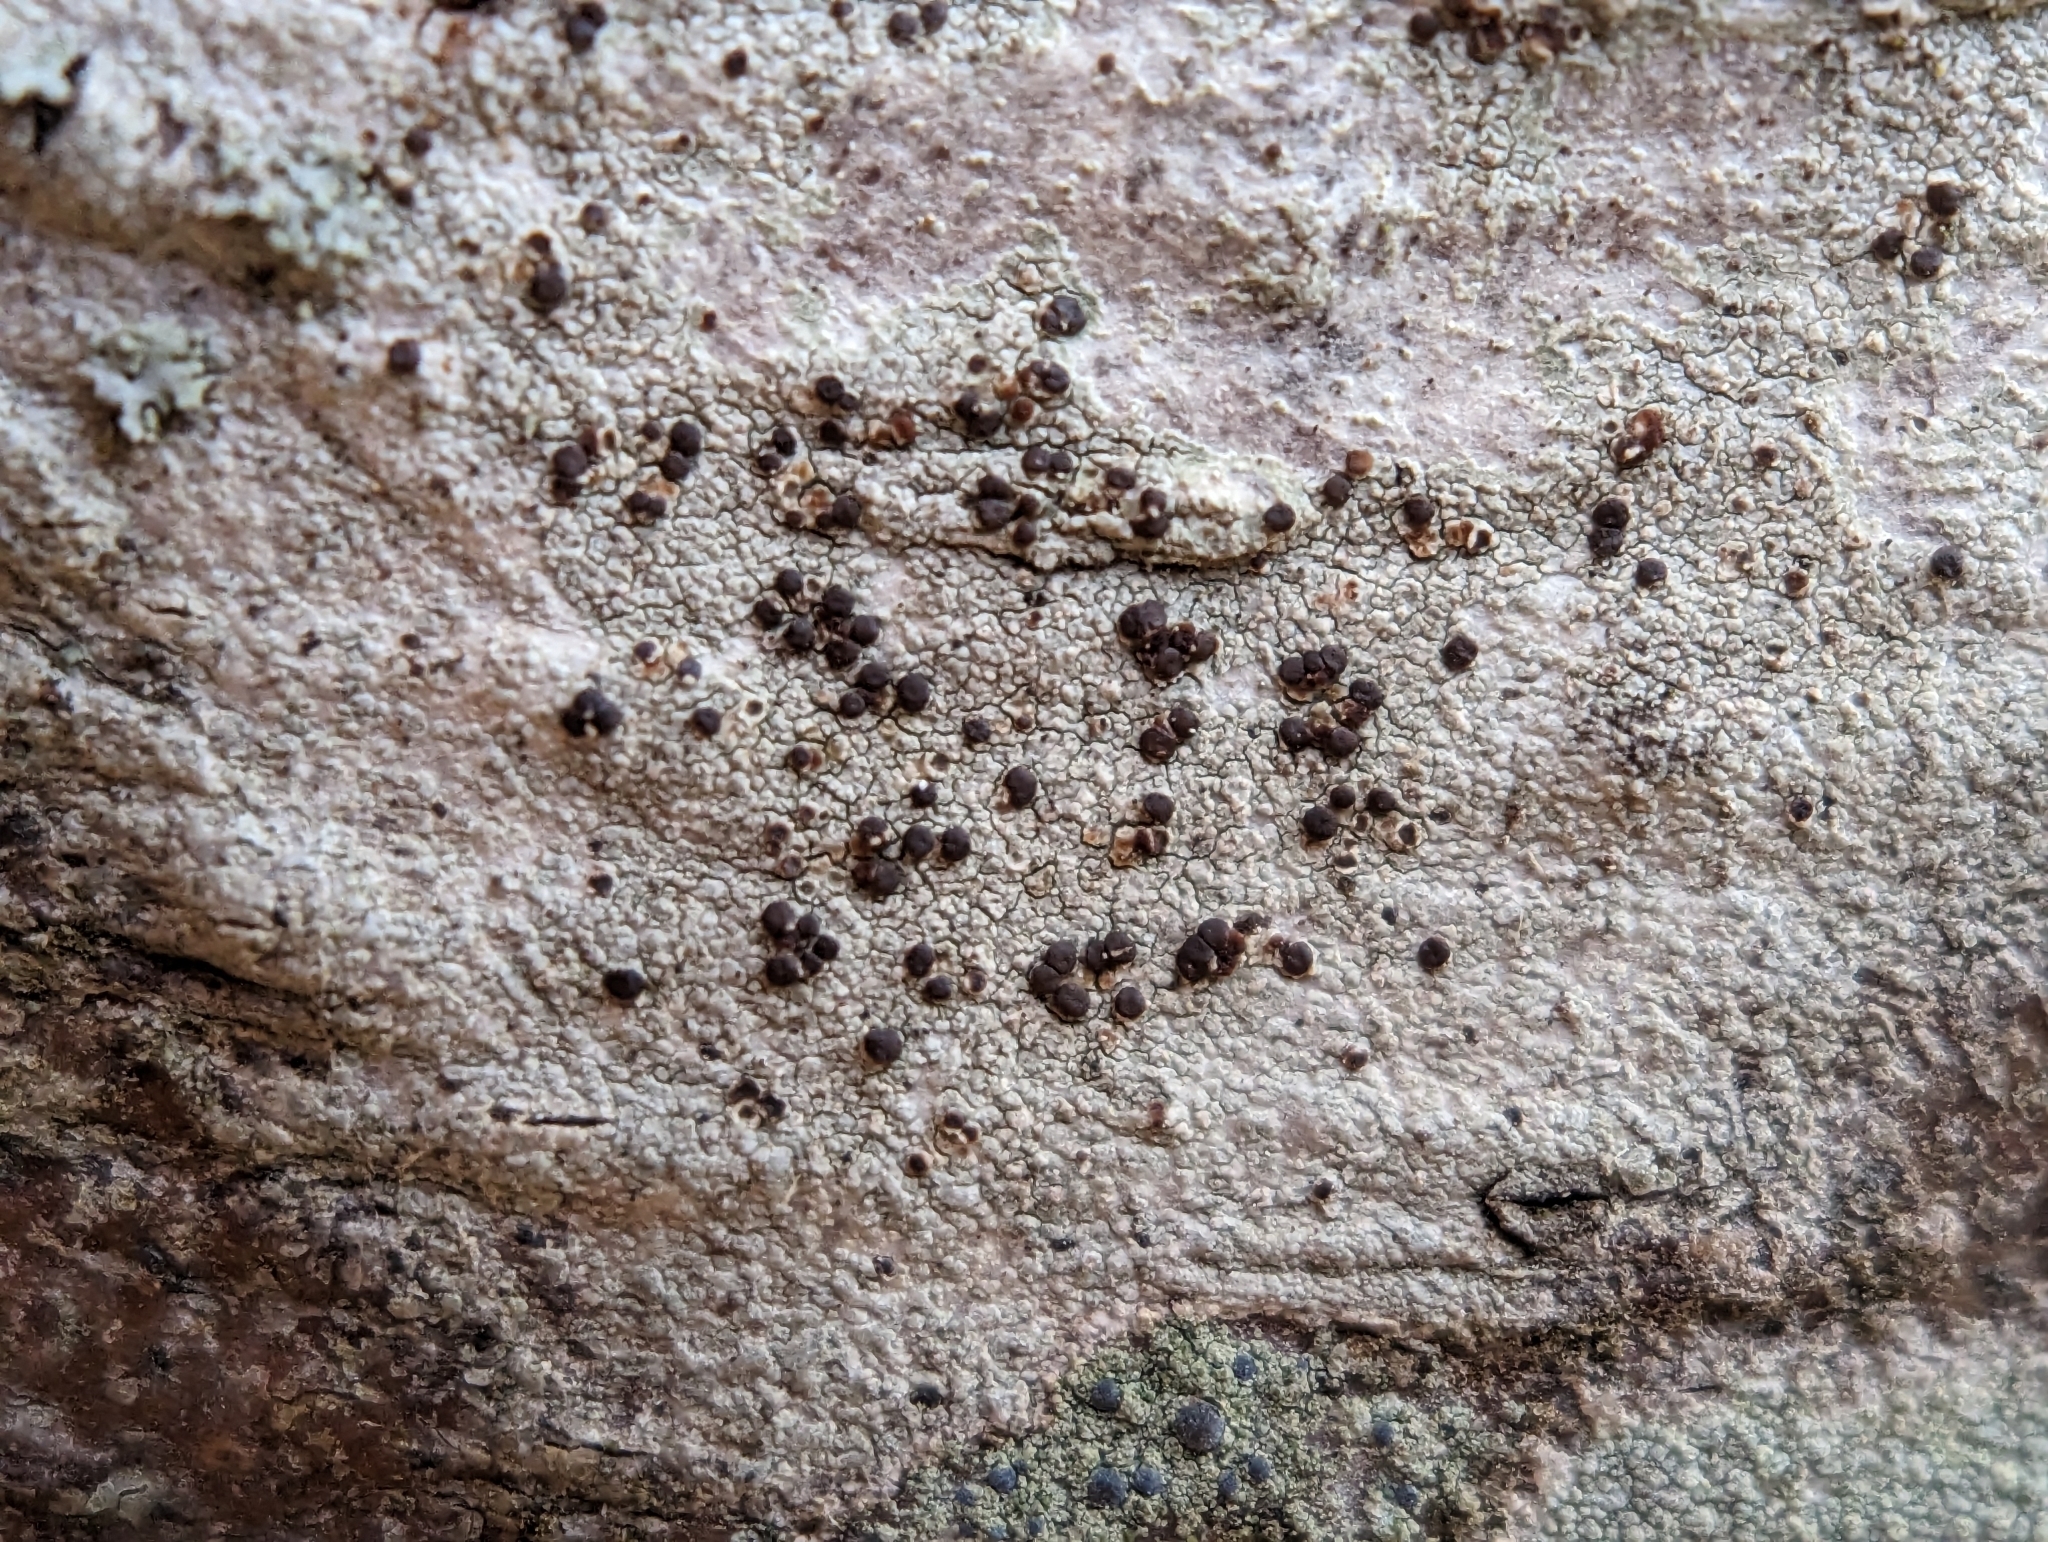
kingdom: Fungi
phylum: Ascomycota
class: Lecanoromycetes
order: Lecanorales
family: Lecanoraceae
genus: Traponora
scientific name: Traponora varians
